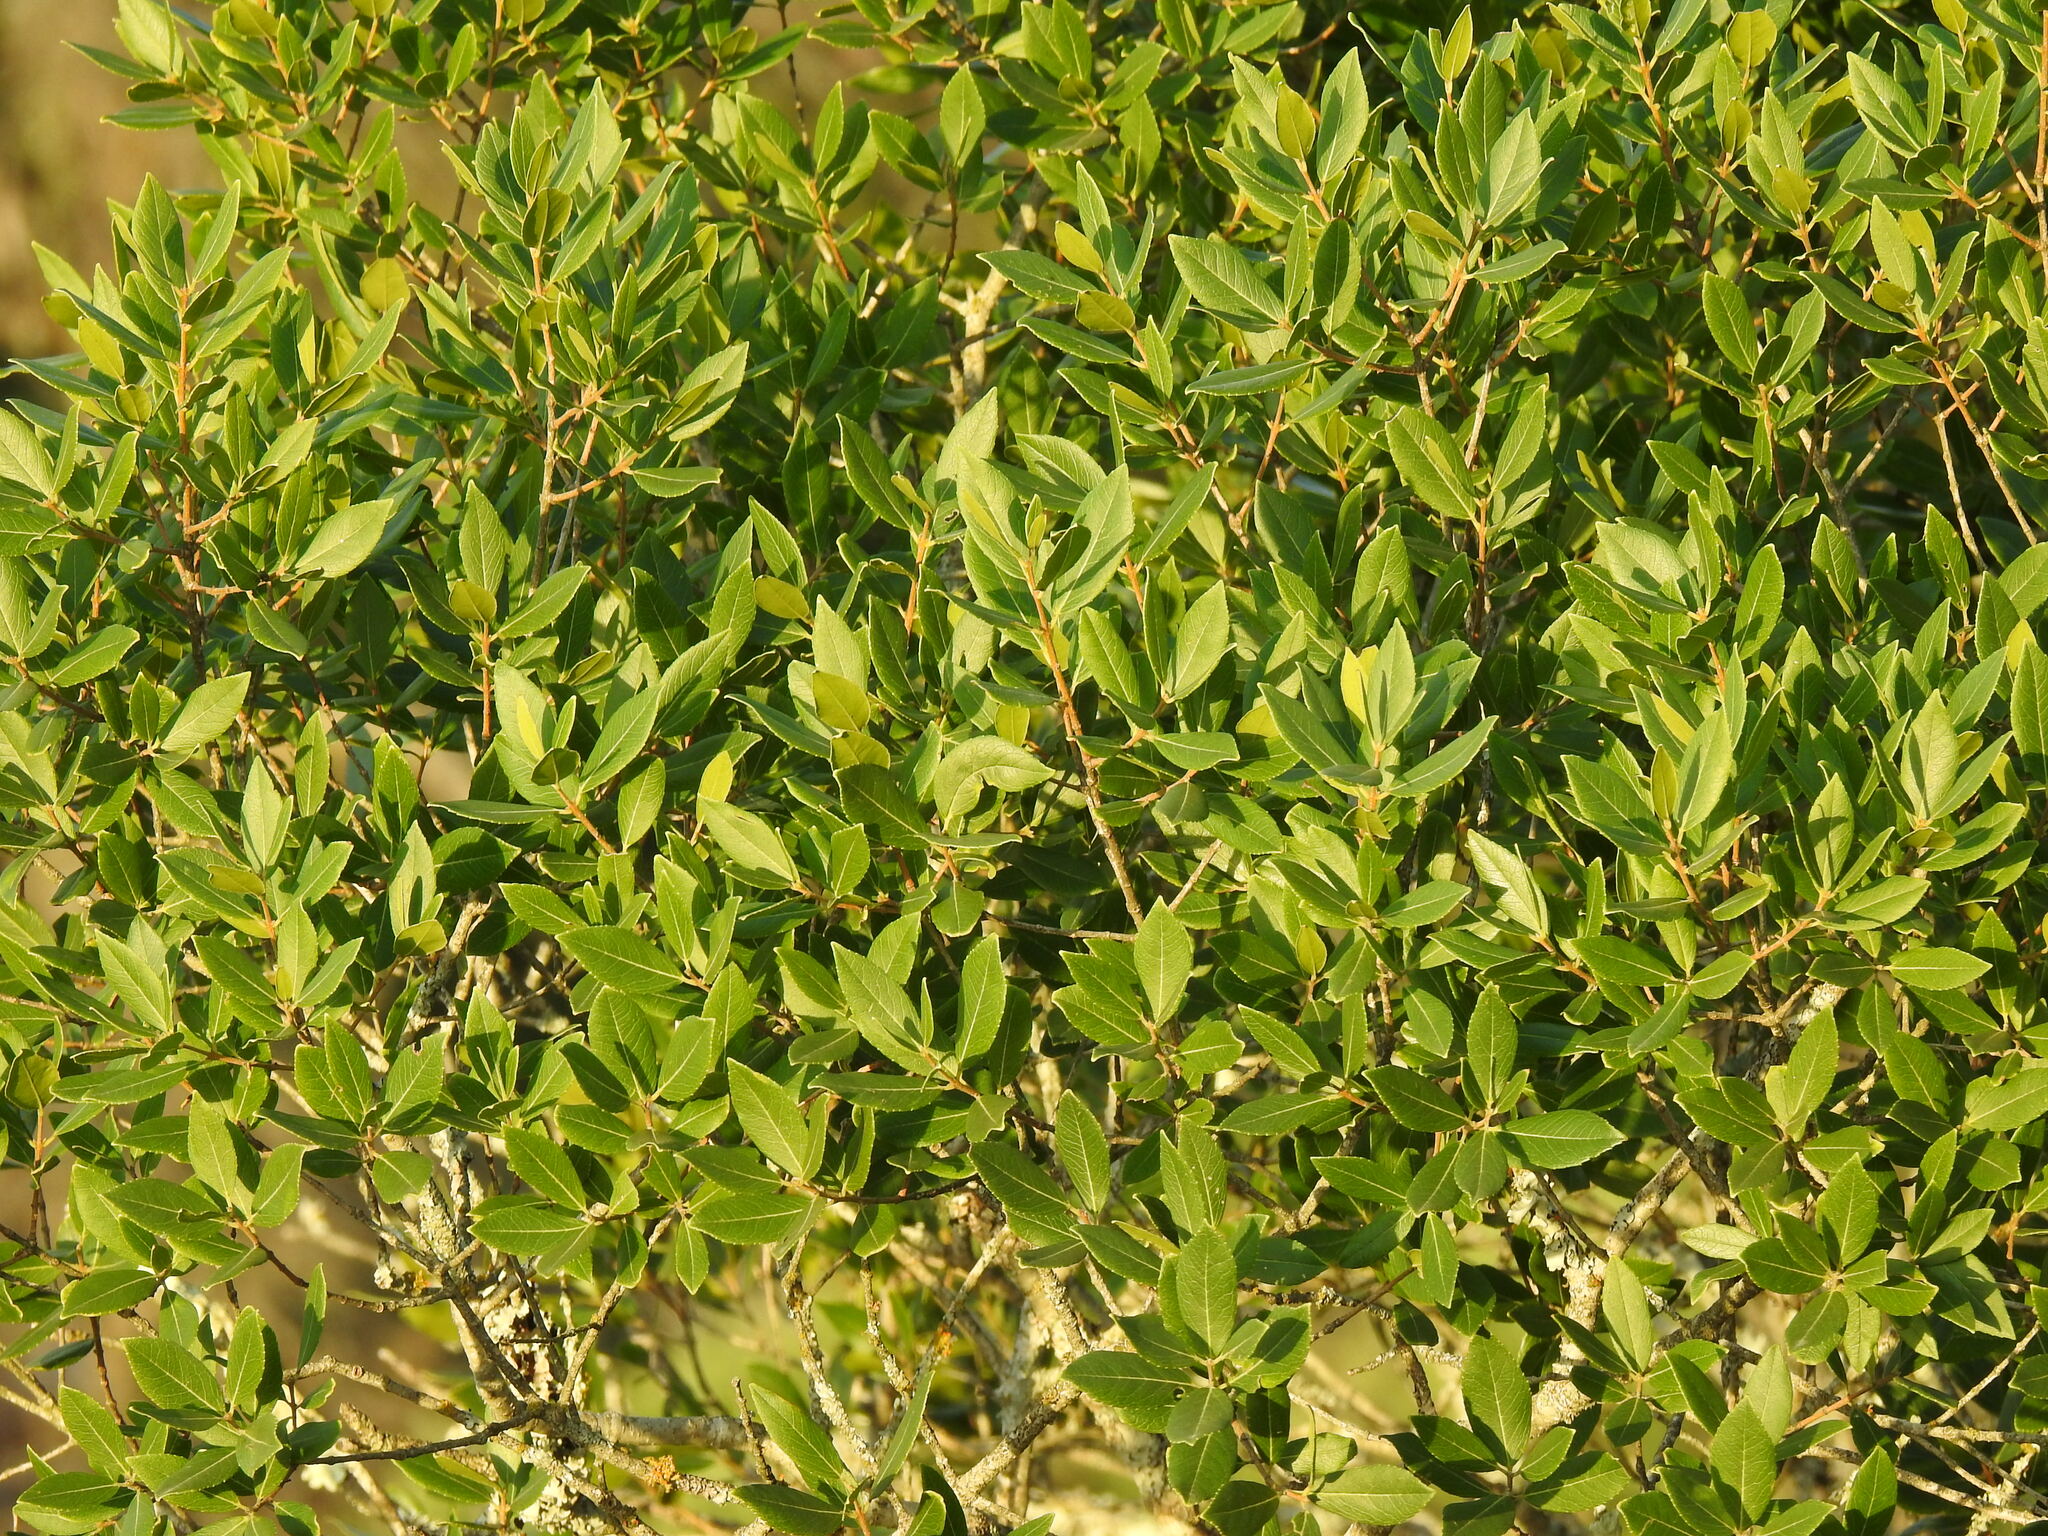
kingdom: Plantae
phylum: Tracheophyta
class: Magnoliopsida
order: Lamiales
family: Oleaceae
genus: Phillyrea
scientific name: Phillyrea latifolia
